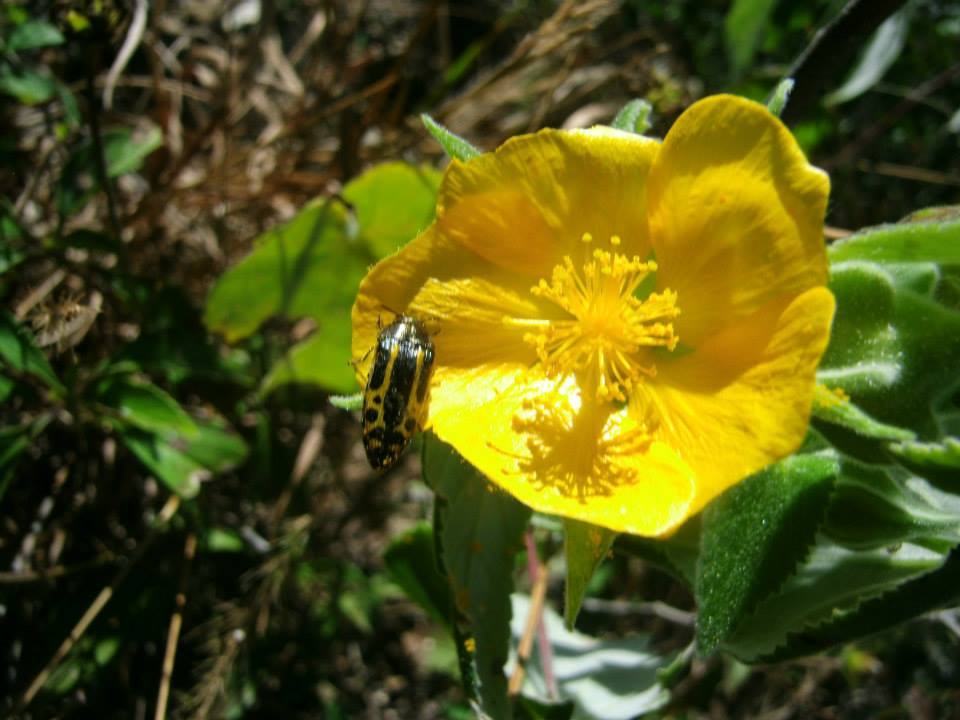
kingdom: Animalia
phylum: Arthropoda
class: Insecta
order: Coleoptera
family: Buprestidae
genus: Acmaeodera
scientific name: Acmaeodera scalaris
